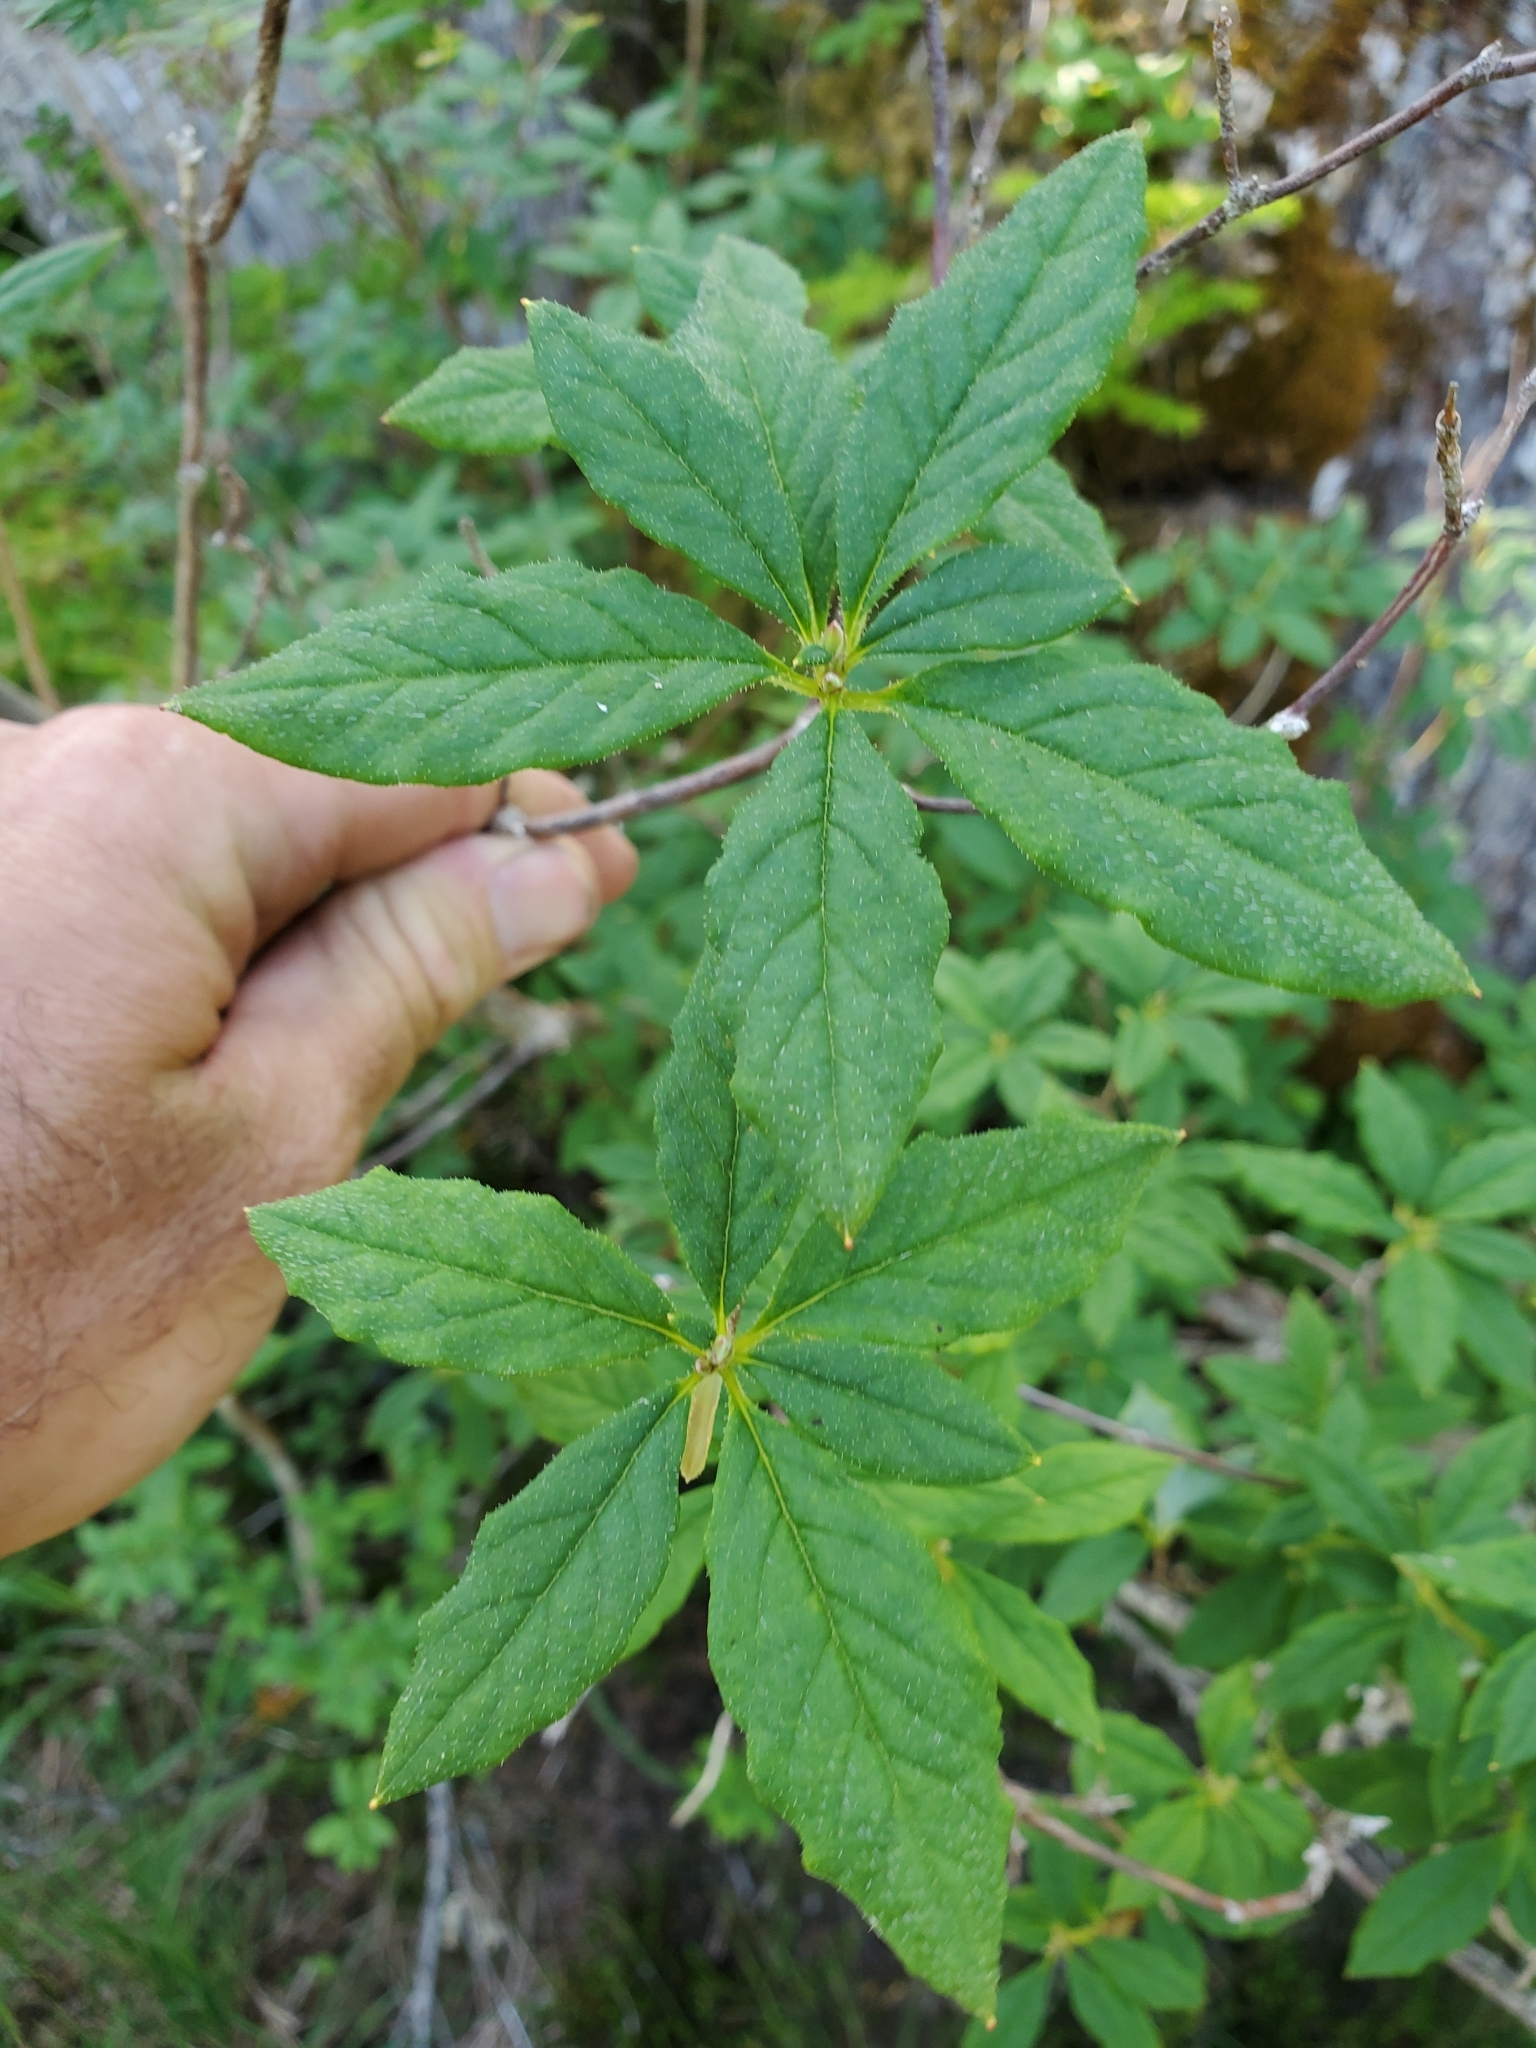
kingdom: Plantae
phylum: Tracheophyta
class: Magnoliopsida
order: Ericales
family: Ericaceae
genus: Rhododendron
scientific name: Rhododendron menziesii
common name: Pacific menziesia
